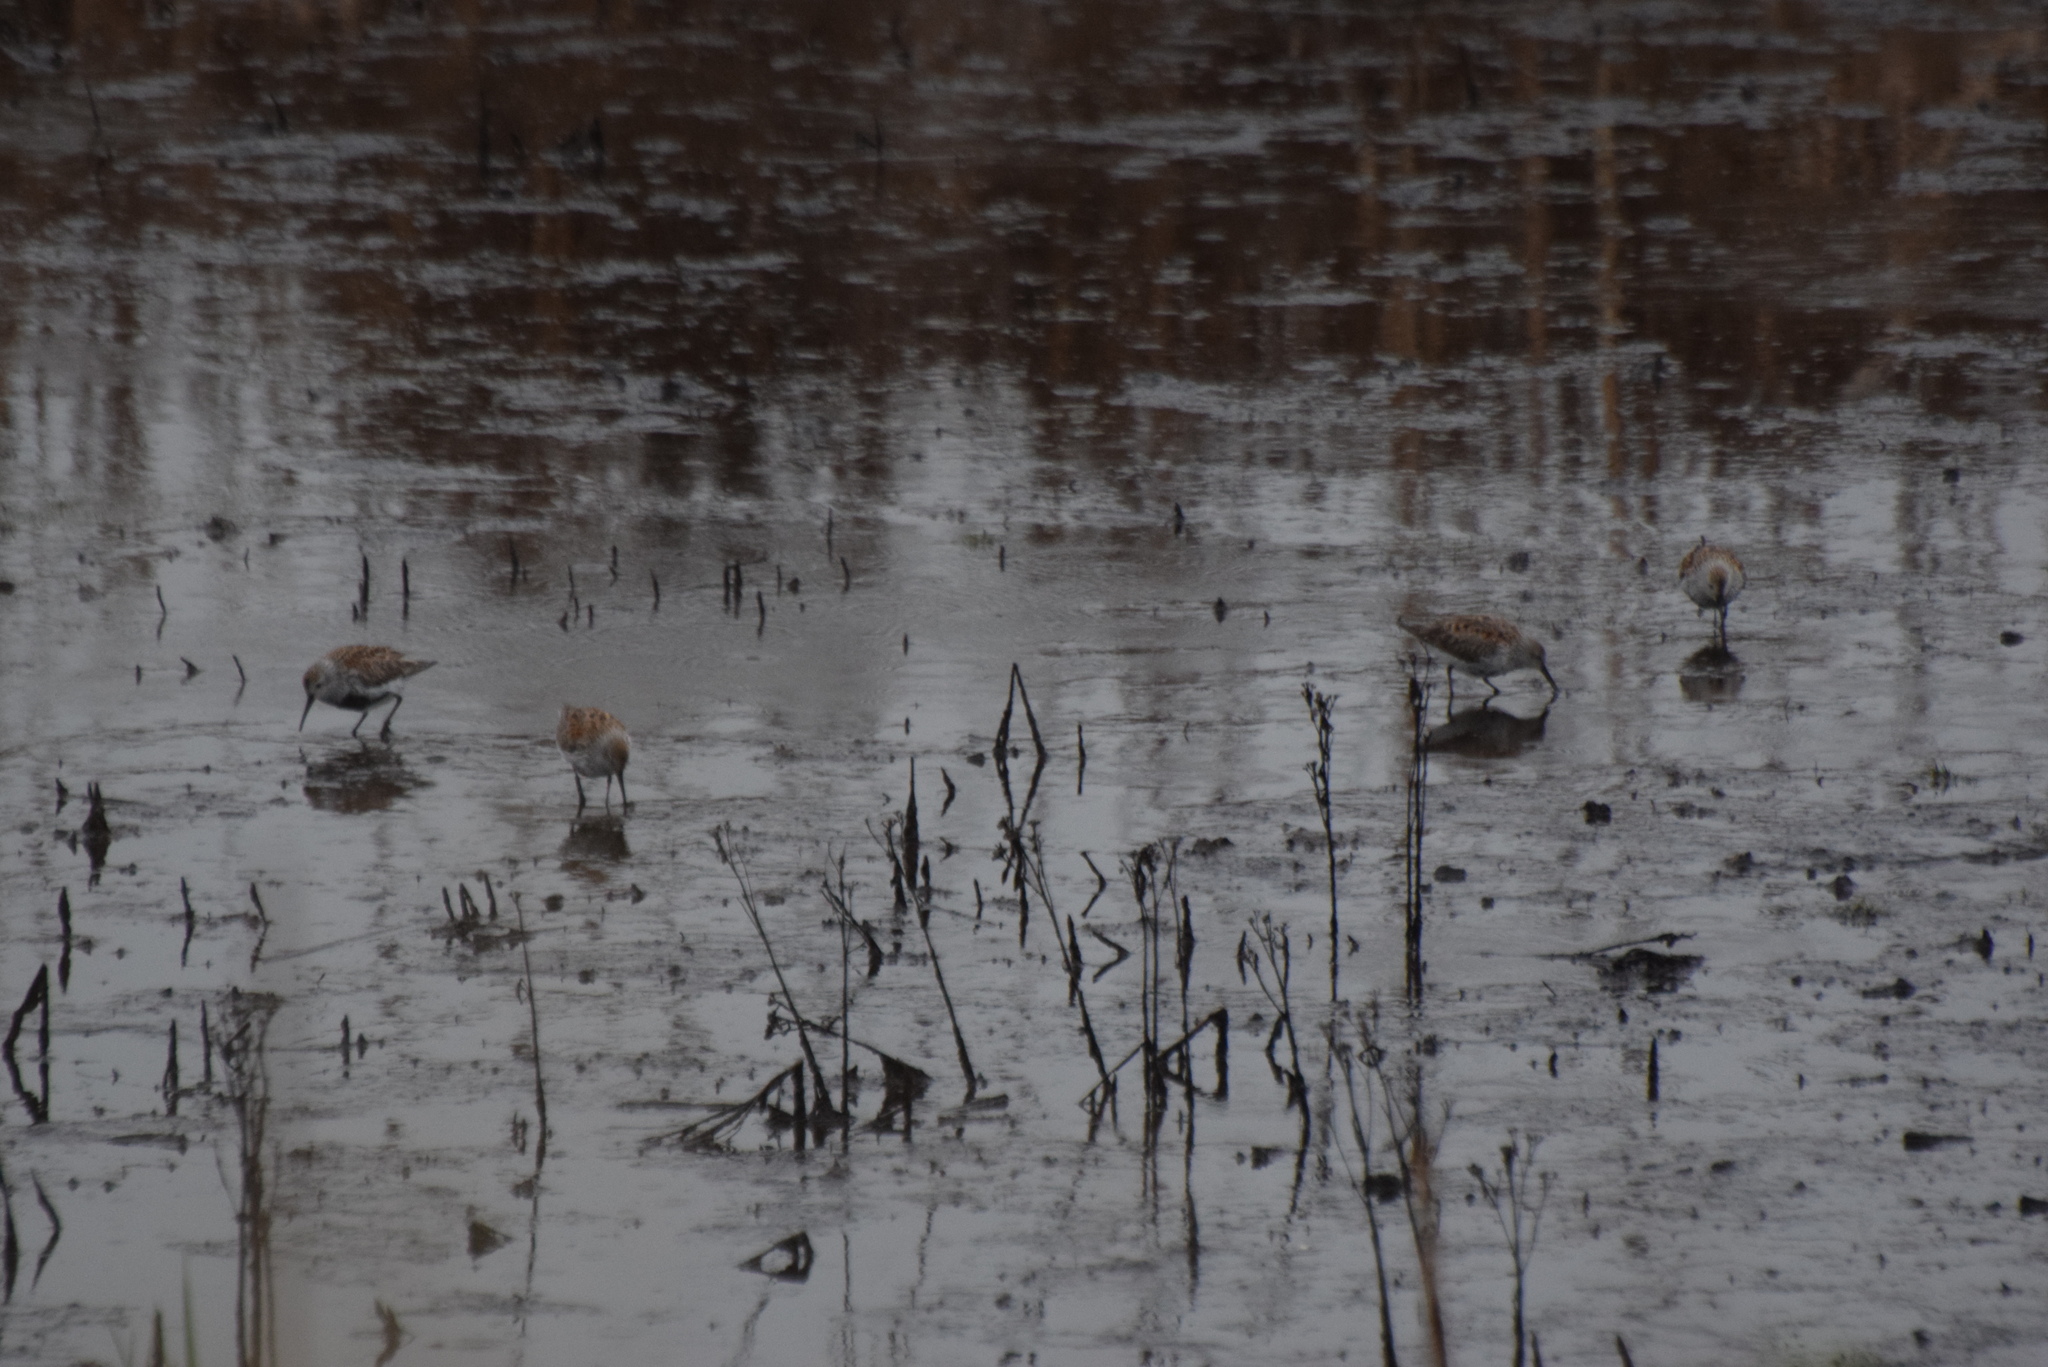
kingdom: Animalia
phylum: Chordata
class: Aves
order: Charadriiformes
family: Scolopacidae
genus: Calidris
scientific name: Calidris alpina
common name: Dunlin
